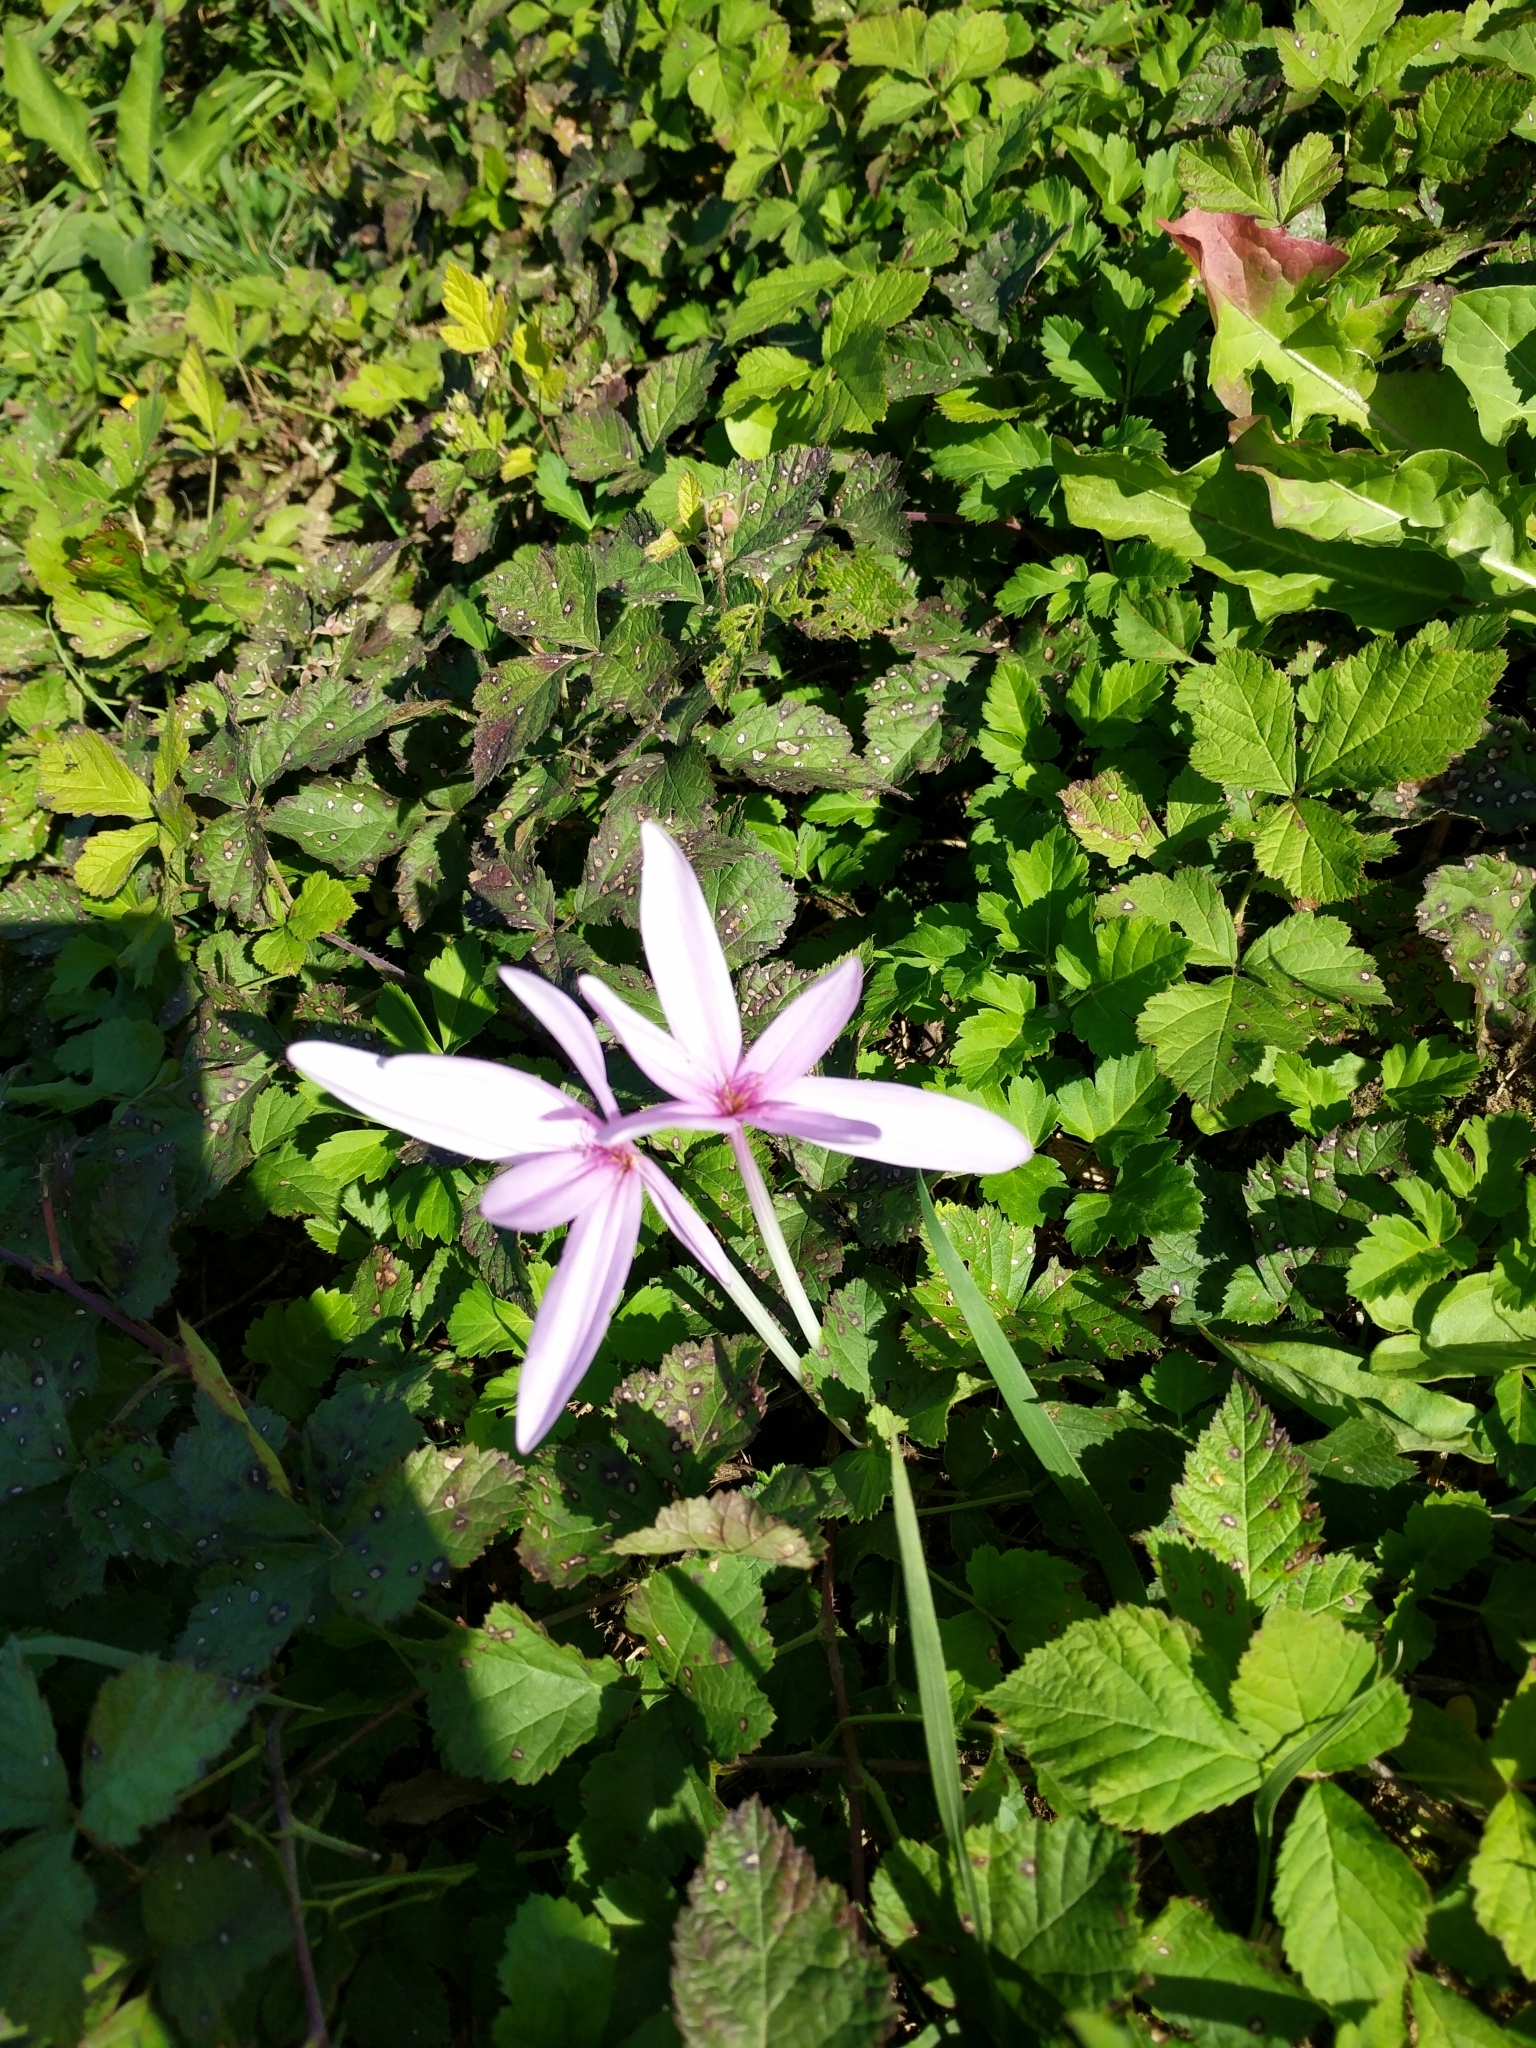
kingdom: Plantae
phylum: Tracheophyta
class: Liliopsida
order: Liliales
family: Colchicaceae
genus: Colchicum
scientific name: Colchicum autumnale
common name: Autumn crocus
